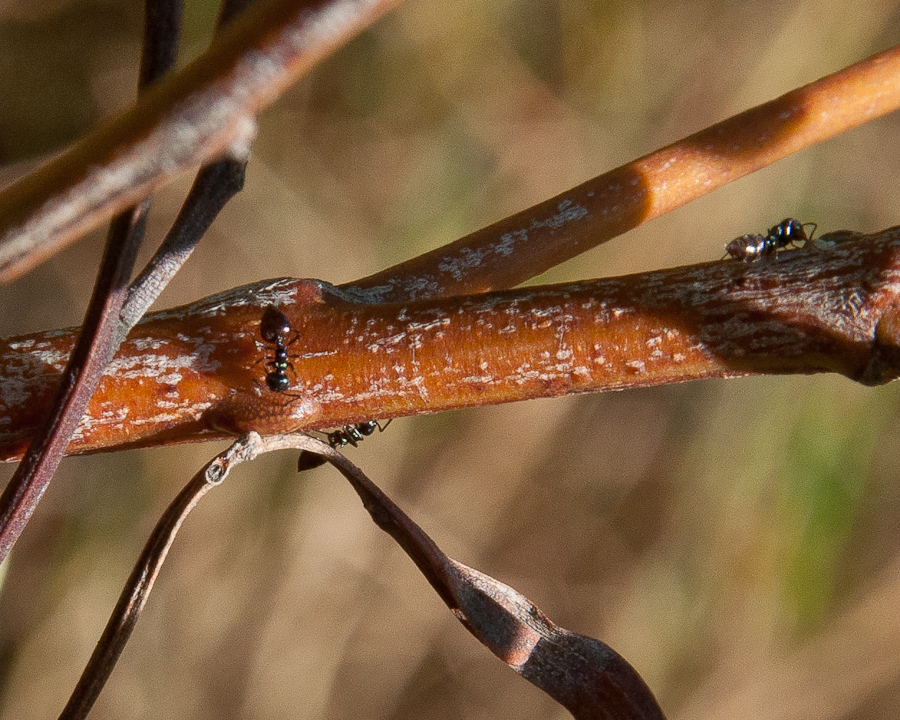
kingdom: Animalia
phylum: Arthropoda
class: Insecta
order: Hymenoptera
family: Formicidae
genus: Crematogaster
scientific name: Crematogaster peringueyi
